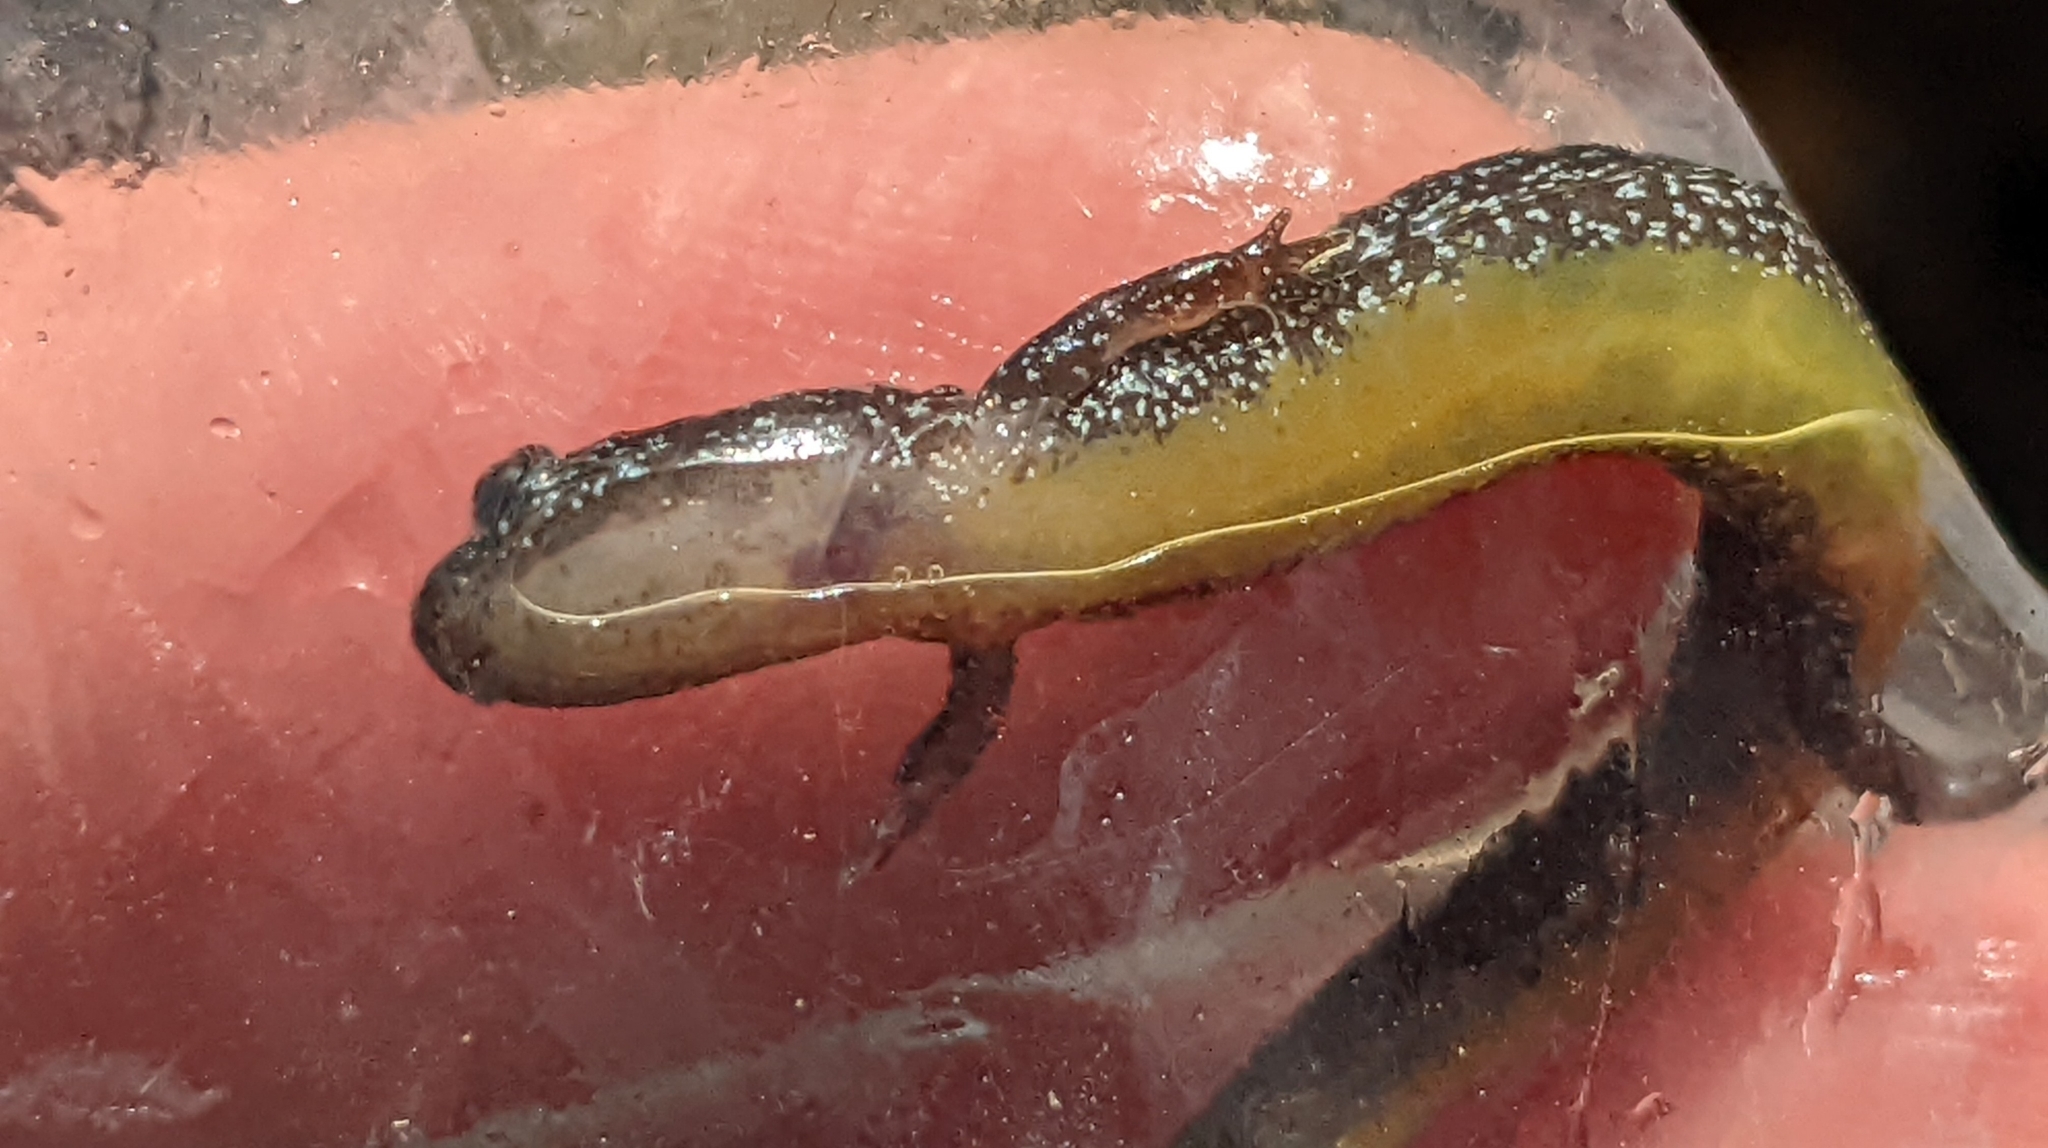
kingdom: Animalia
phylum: Chordata
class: Amphibia
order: Caudata
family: Plethodontidae
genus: Eurycea
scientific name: Eurycea paludicola
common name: Western dwarf salamander
